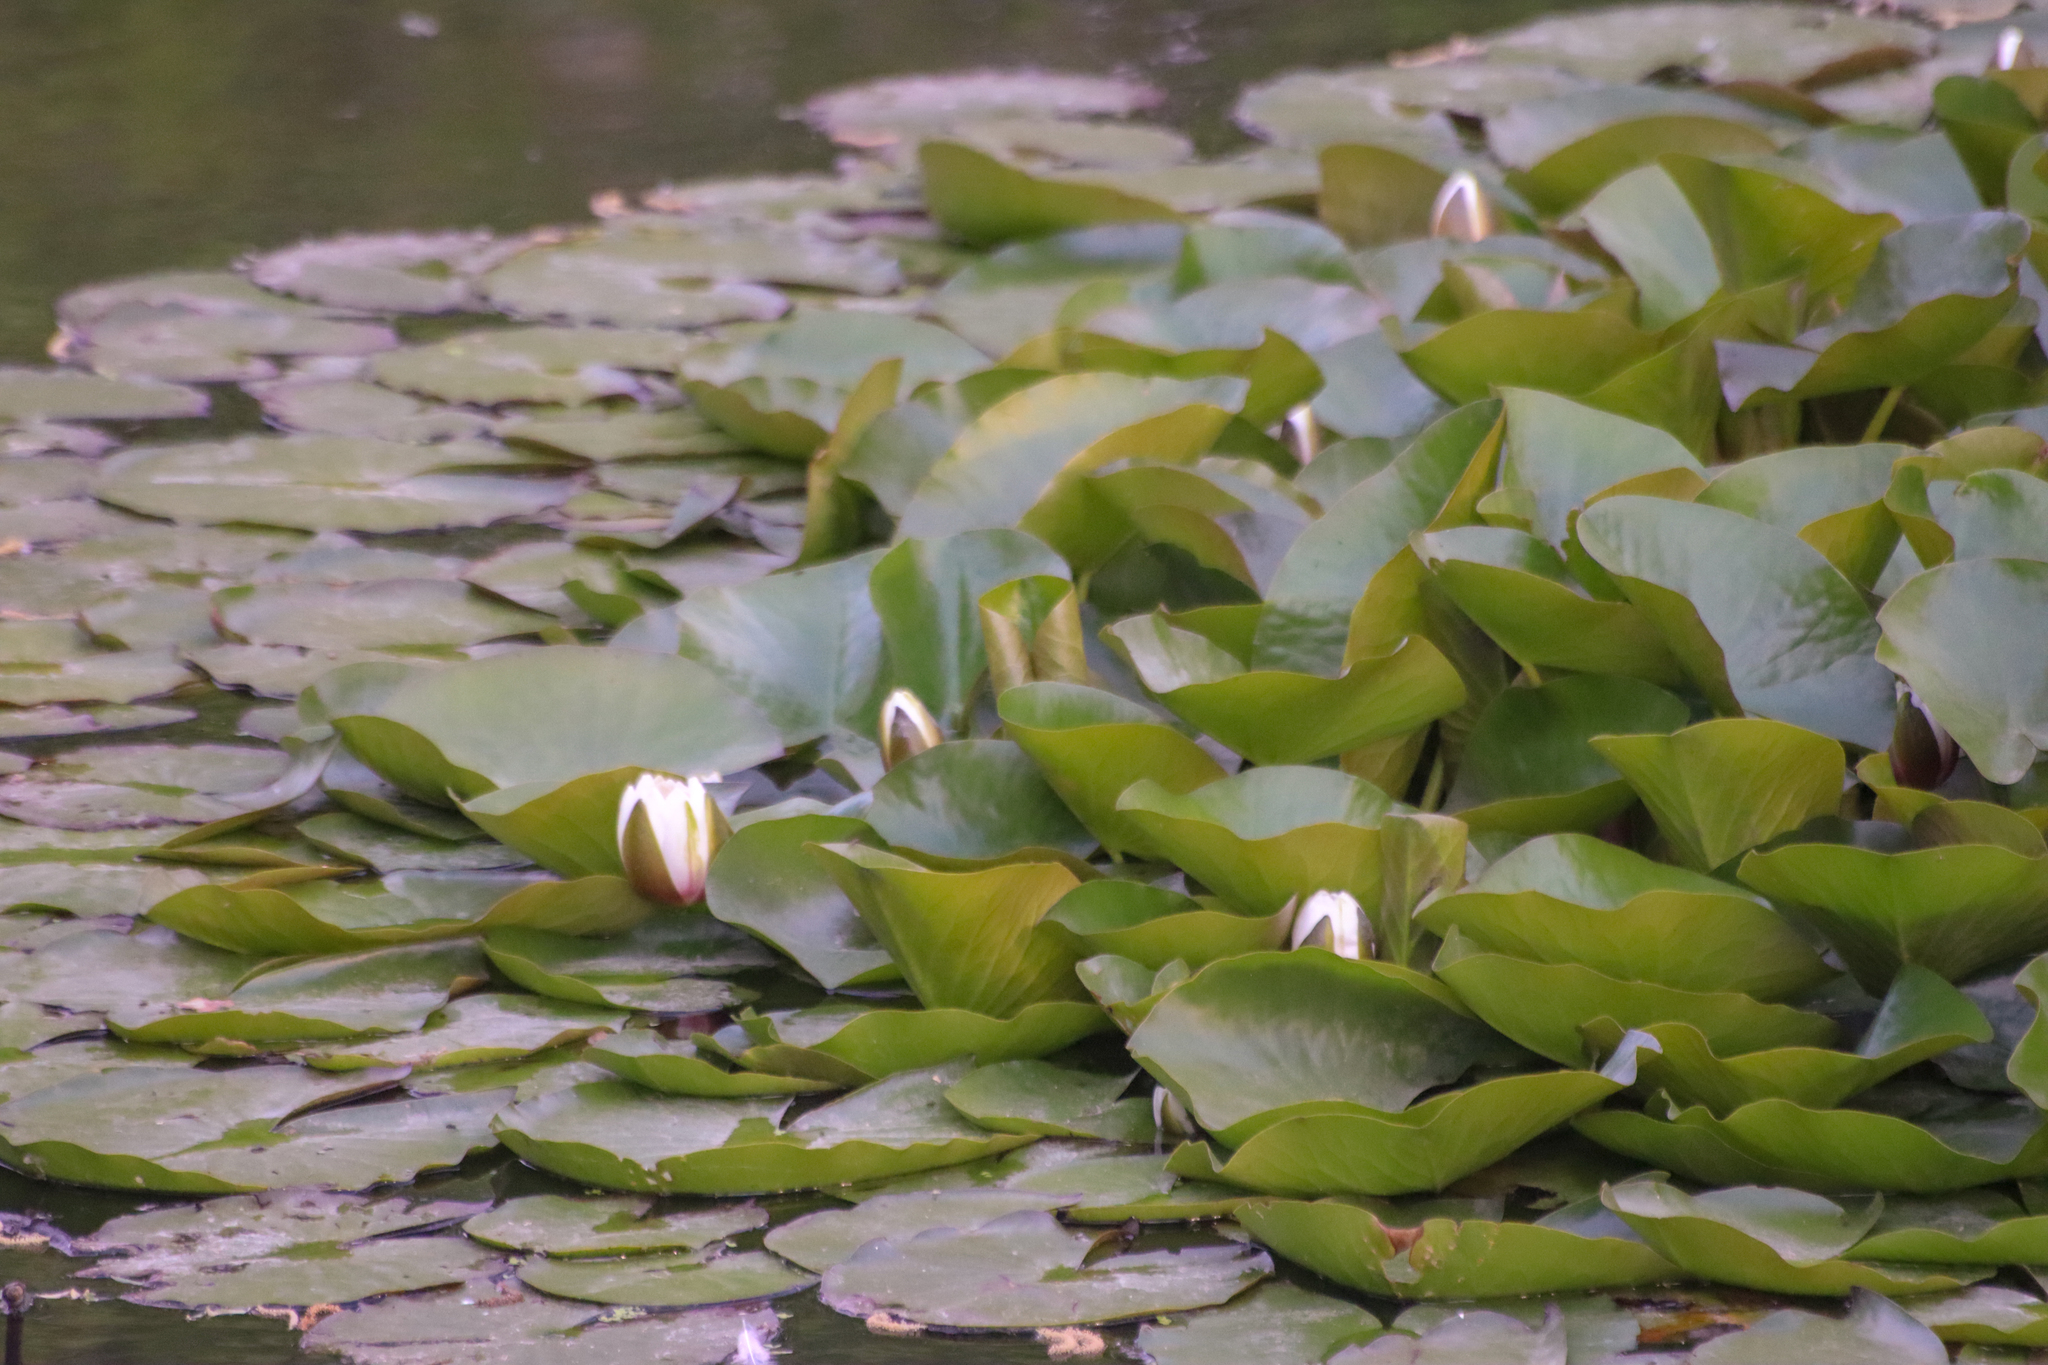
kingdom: Plantae
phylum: Tracheophyta
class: Magnoliopsida
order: Nymphaeales
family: Nymphaeaceae
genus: Nymphaea
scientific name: Nymphaea odorata
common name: Fragrant water-lily
